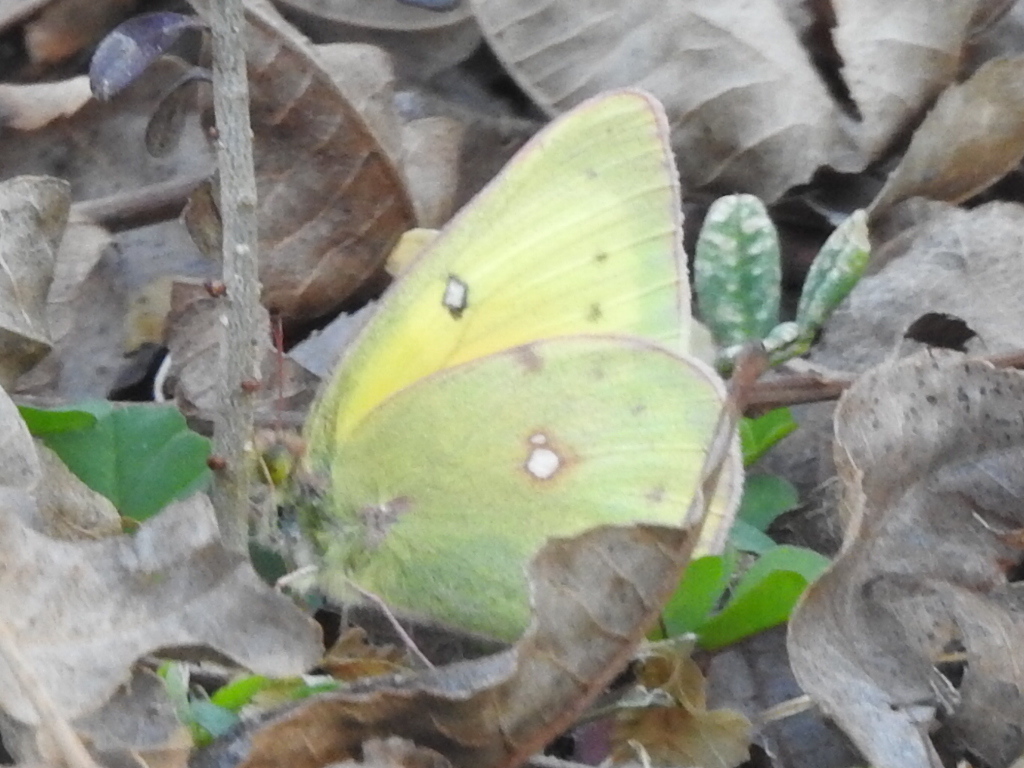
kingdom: Animalia
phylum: Arthropoda
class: Insecta
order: Lepidoptera
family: Pieridae
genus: Colias
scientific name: Colias eurytheme
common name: Alfalfa butterfly
